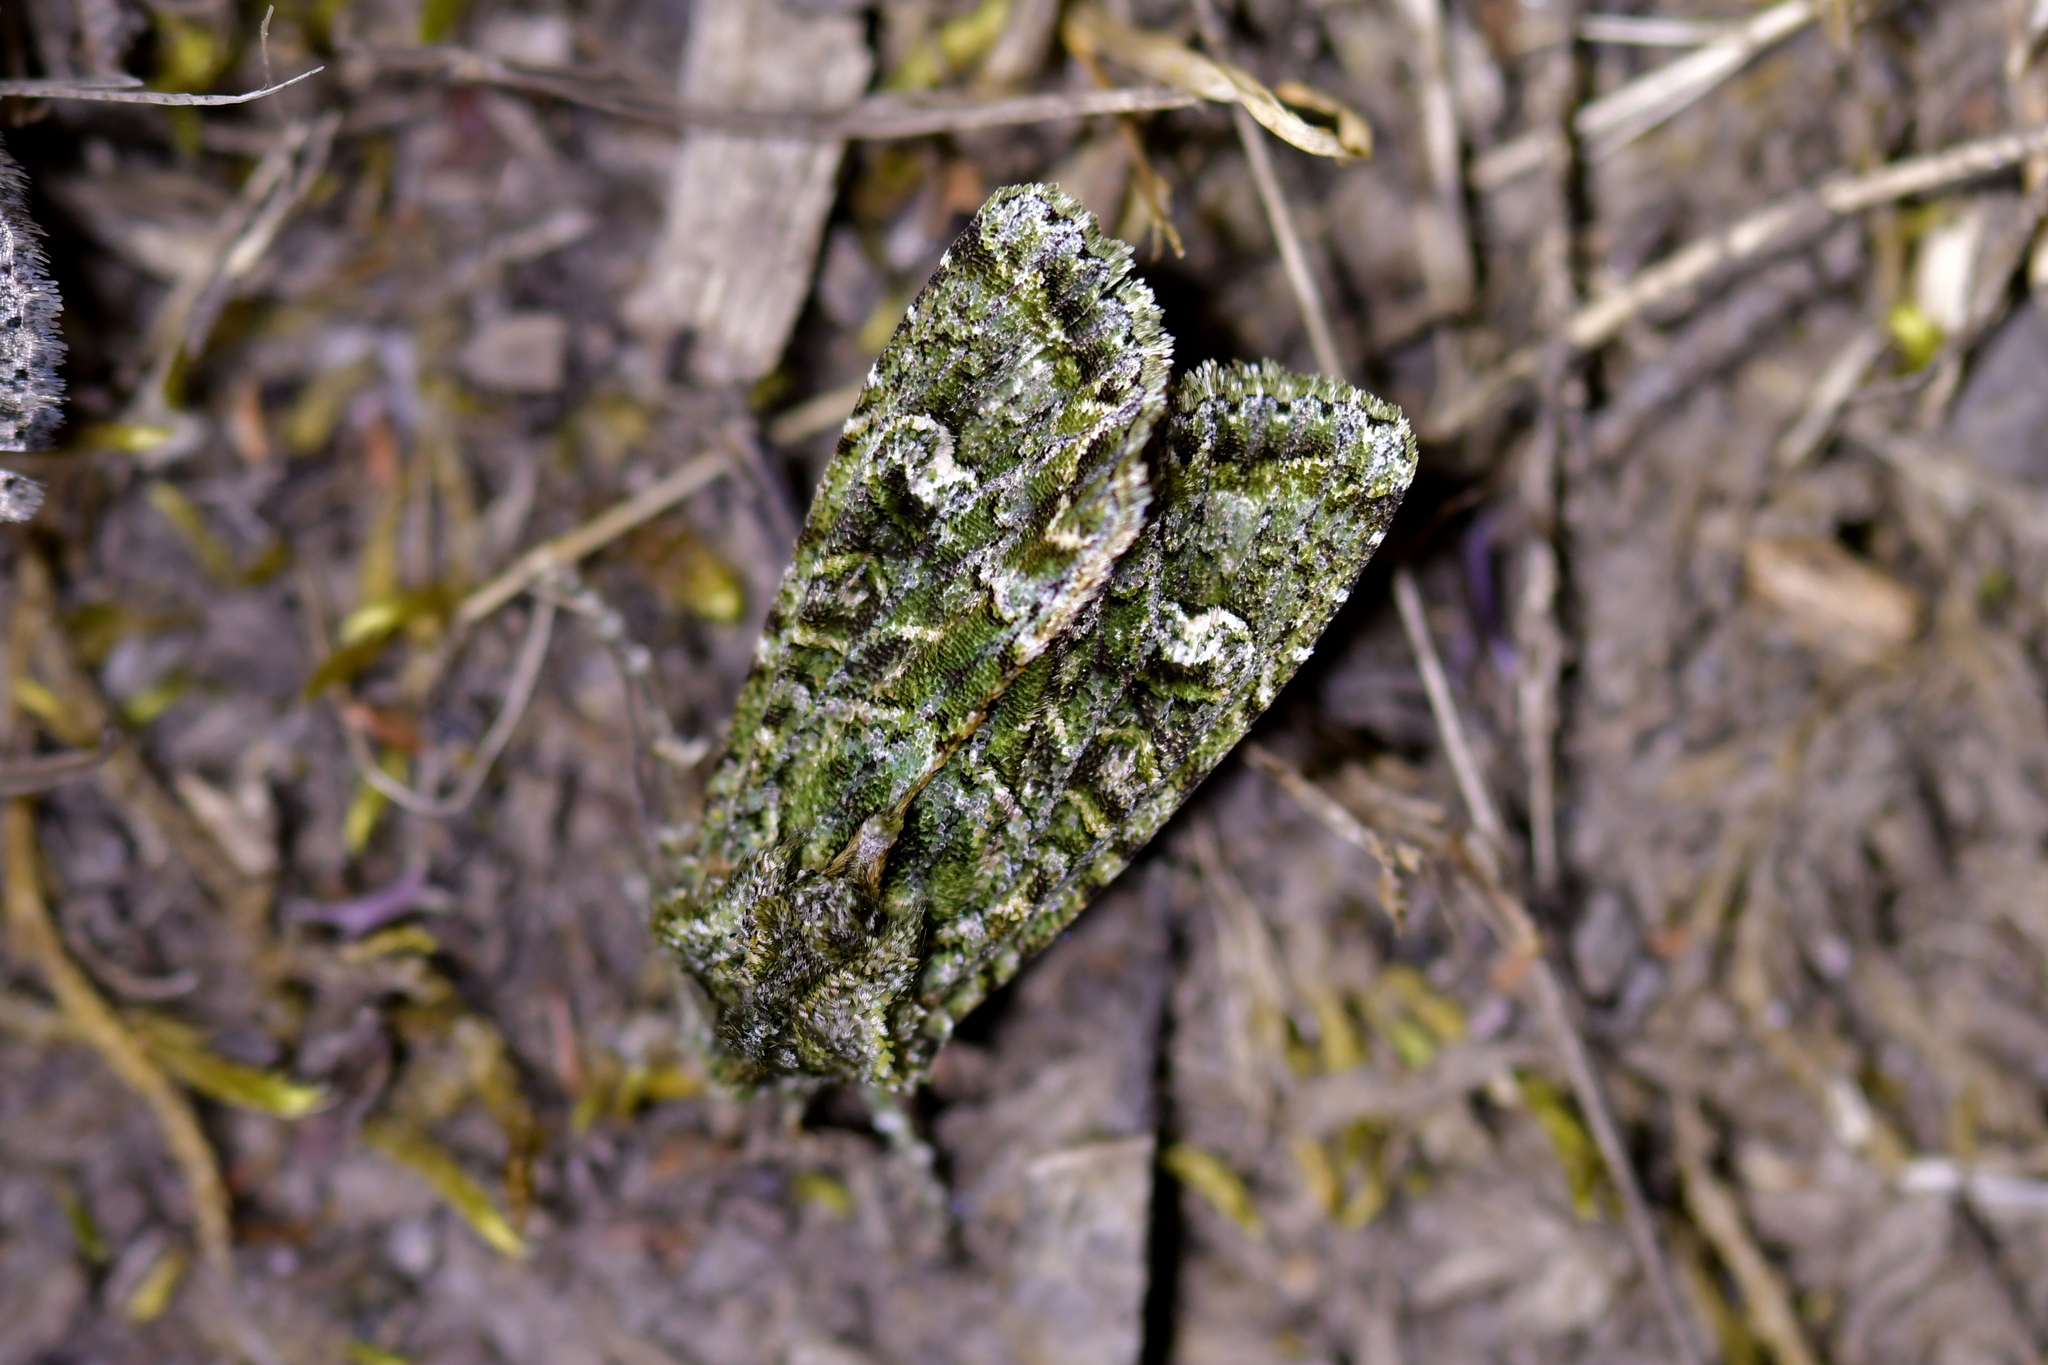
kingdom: Animalia
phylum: Arthropoda
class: Insecta
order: Lepidoptera
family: Noctuidae
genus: Ichneutica
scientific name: Ichneutica
